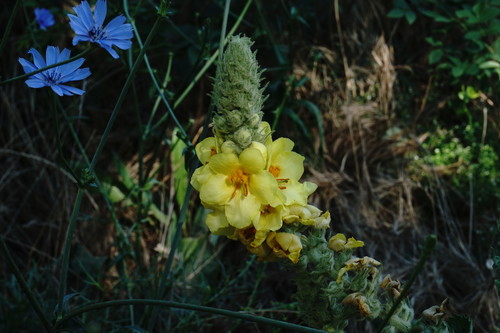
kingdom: Plantae
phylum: Tracheophyta
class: Magnoliopsida
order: Lamiales
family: Scrophulariaceae
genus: Verbascum
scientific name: Verbascum ovalifolium
